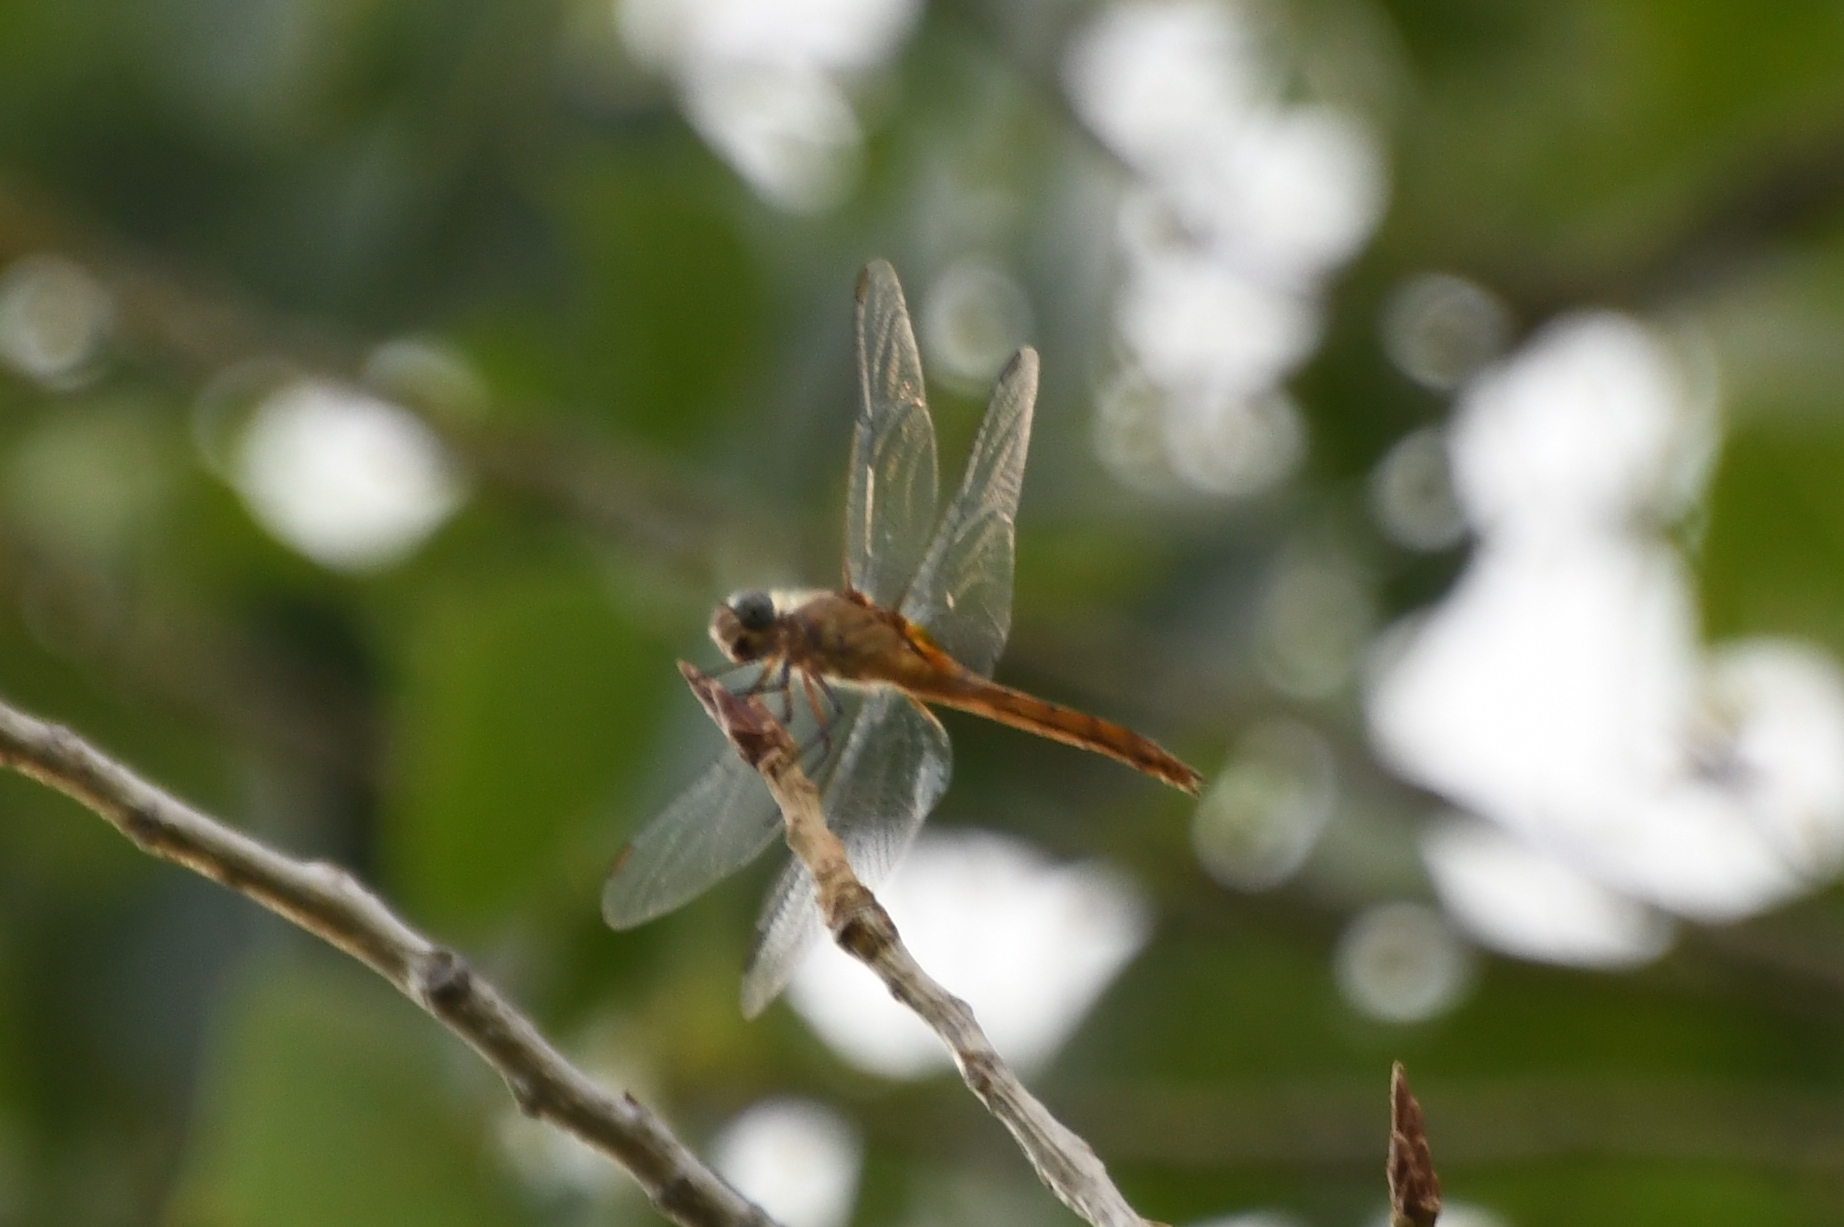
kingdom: Animalia
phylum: Arthropoda
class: Insecta
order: Odonata
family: Libellulidae
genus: Brachymesia
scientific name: Brachymesia furcata
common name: Red-taled pennant
